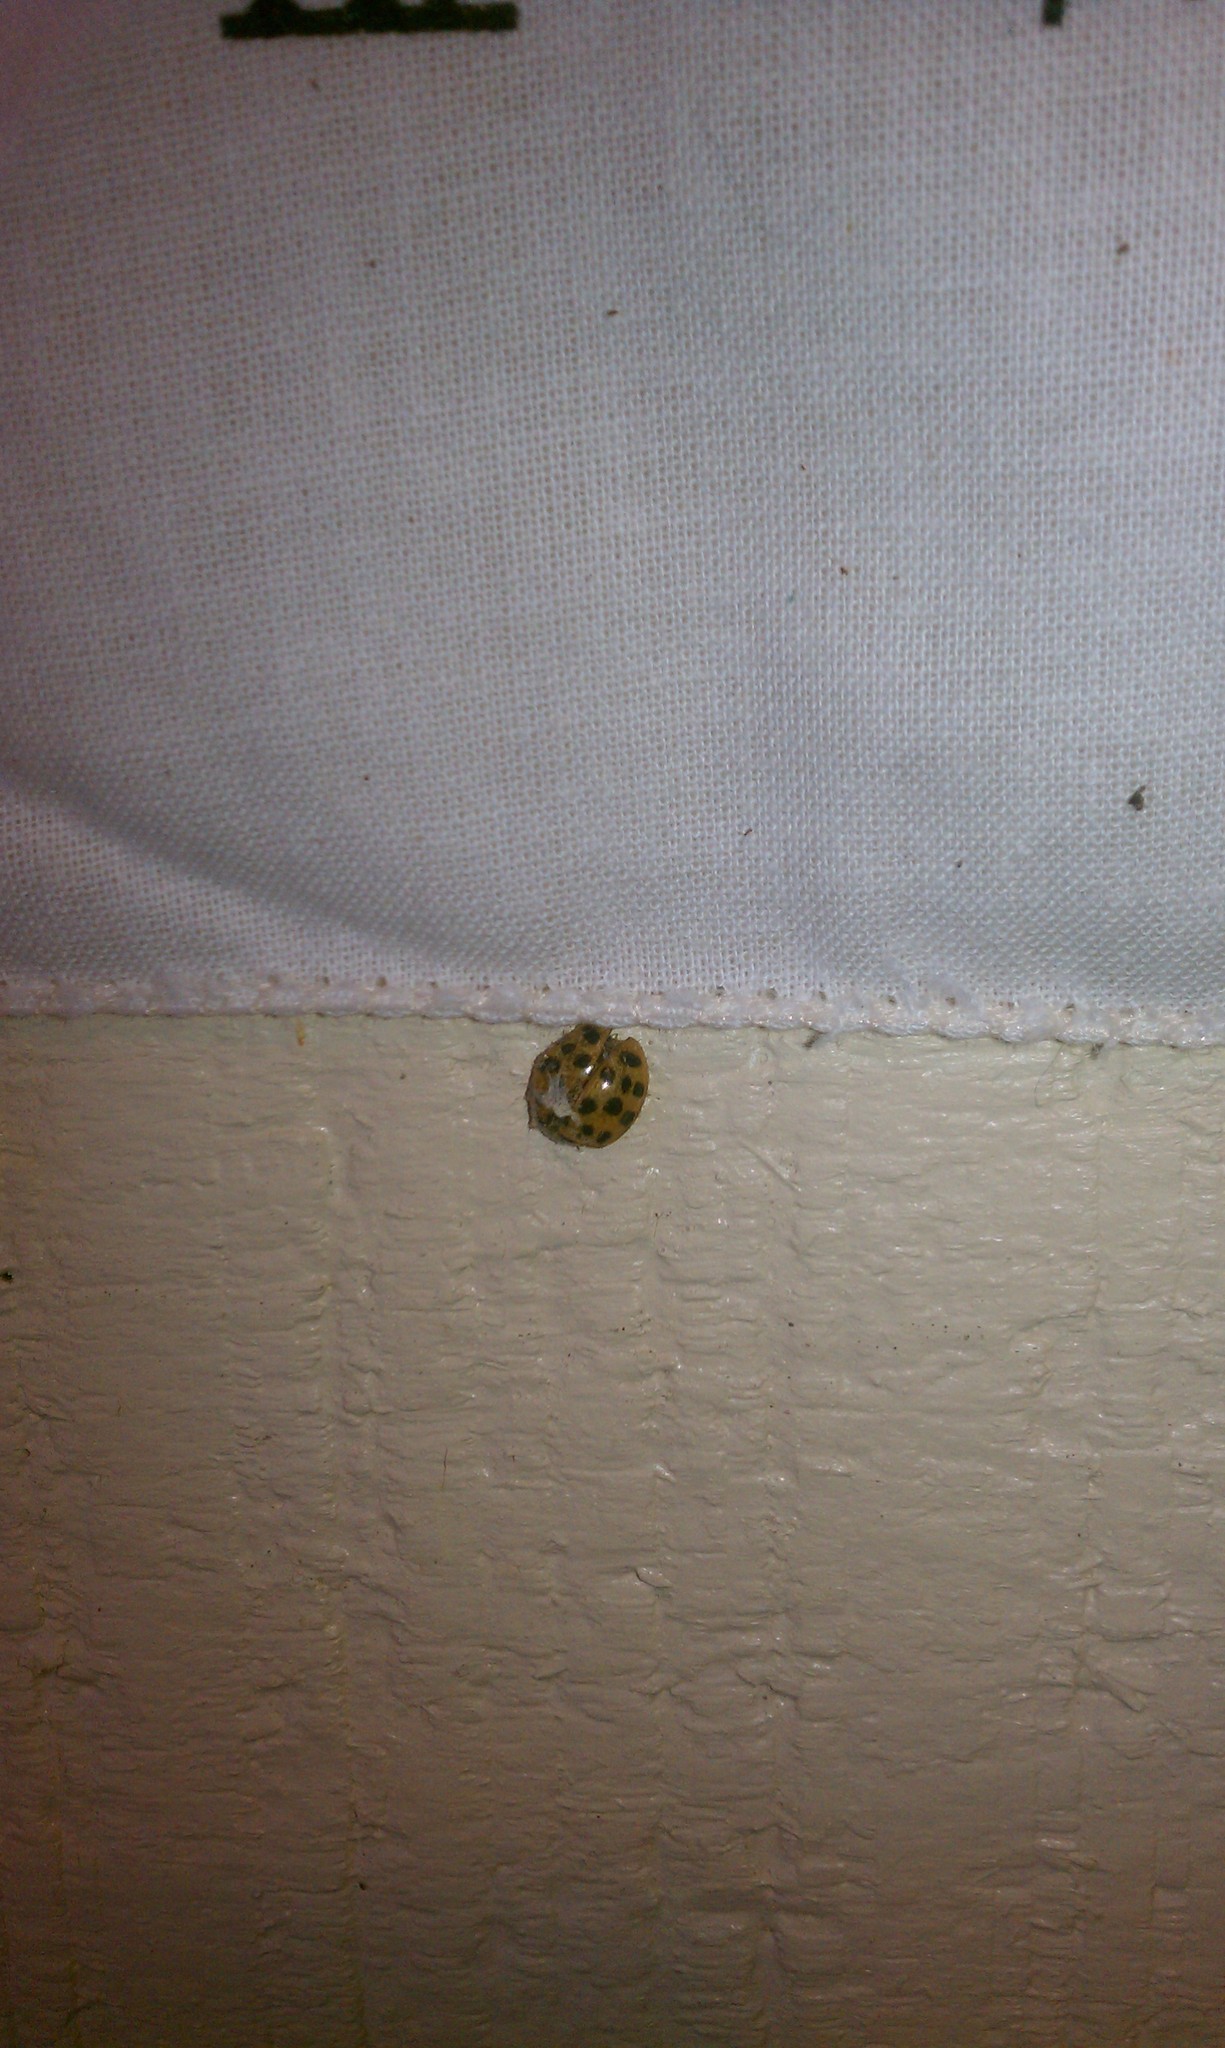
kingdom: Animalia
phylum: Arthropoda
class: Insecta
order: Coleoptera
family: Coccinellidae
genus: Harmonia
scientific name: Harmonia axyridis
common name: Harlequin ladybird
